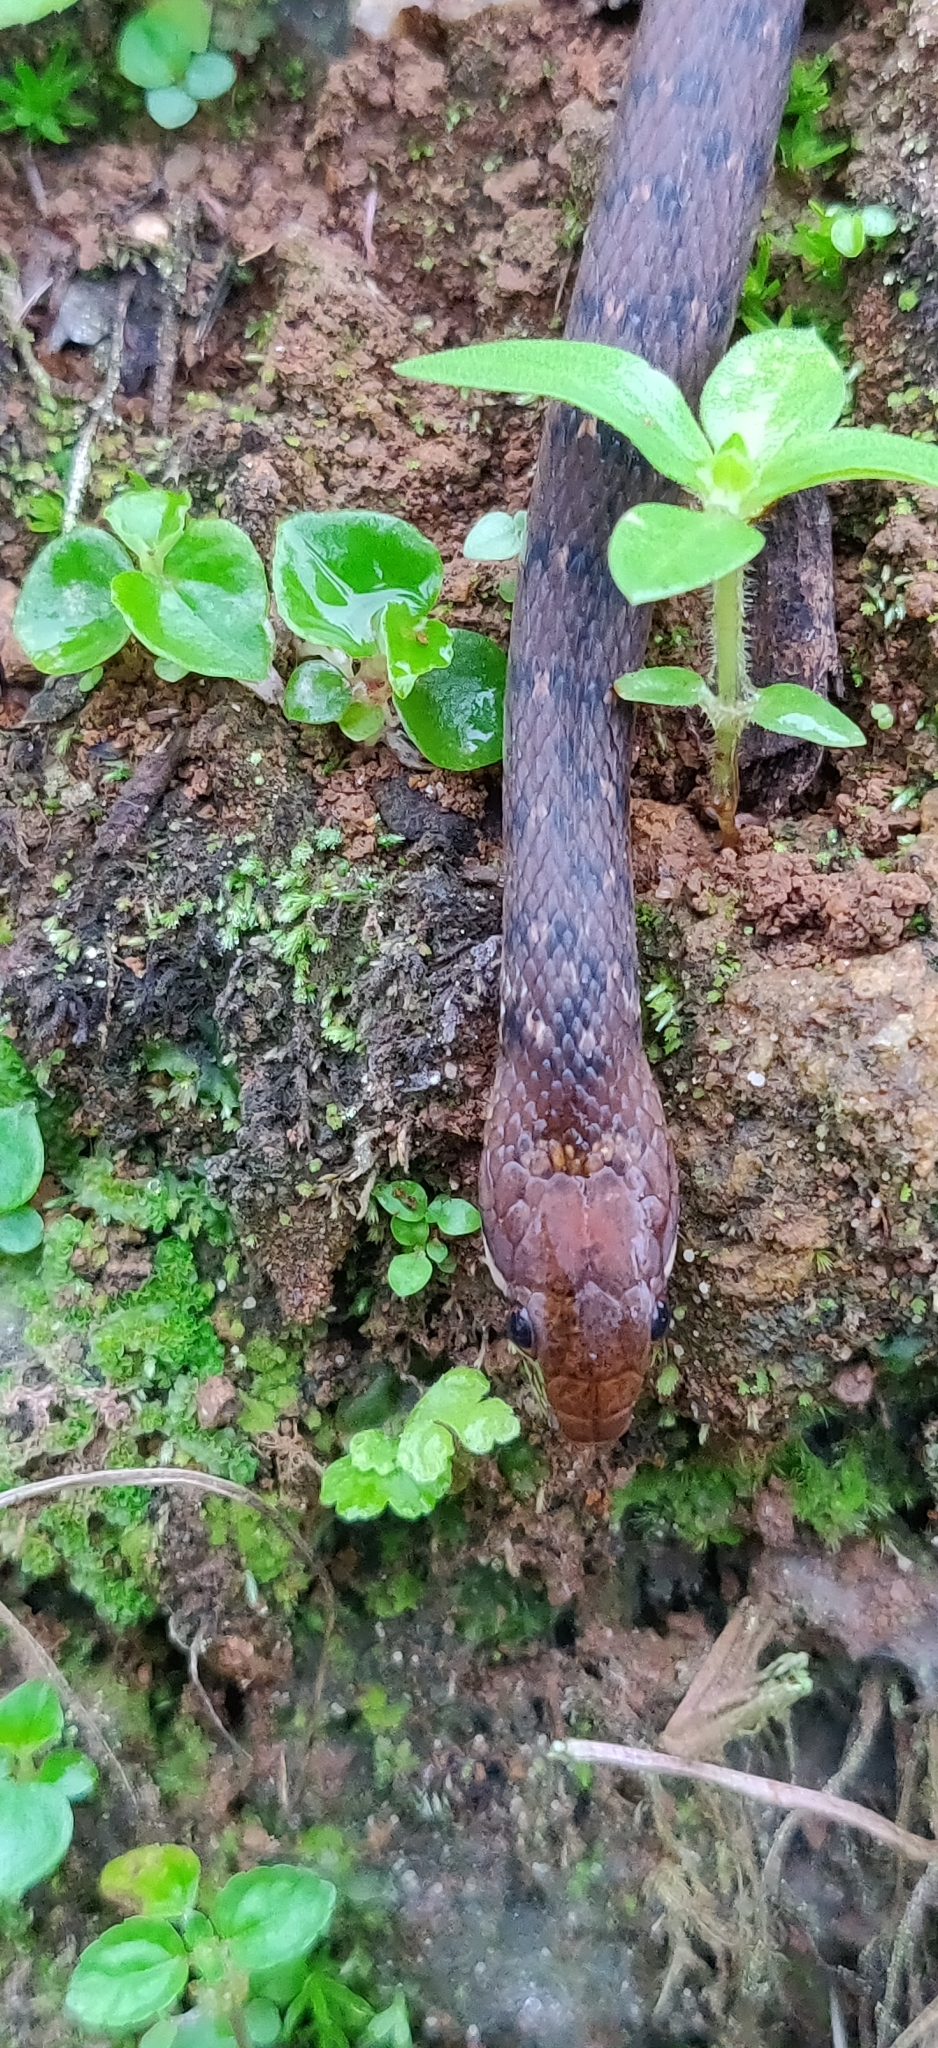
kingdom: Animalia
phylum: Chordata
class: Squamata
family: Colubridae
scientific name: Colubridae
